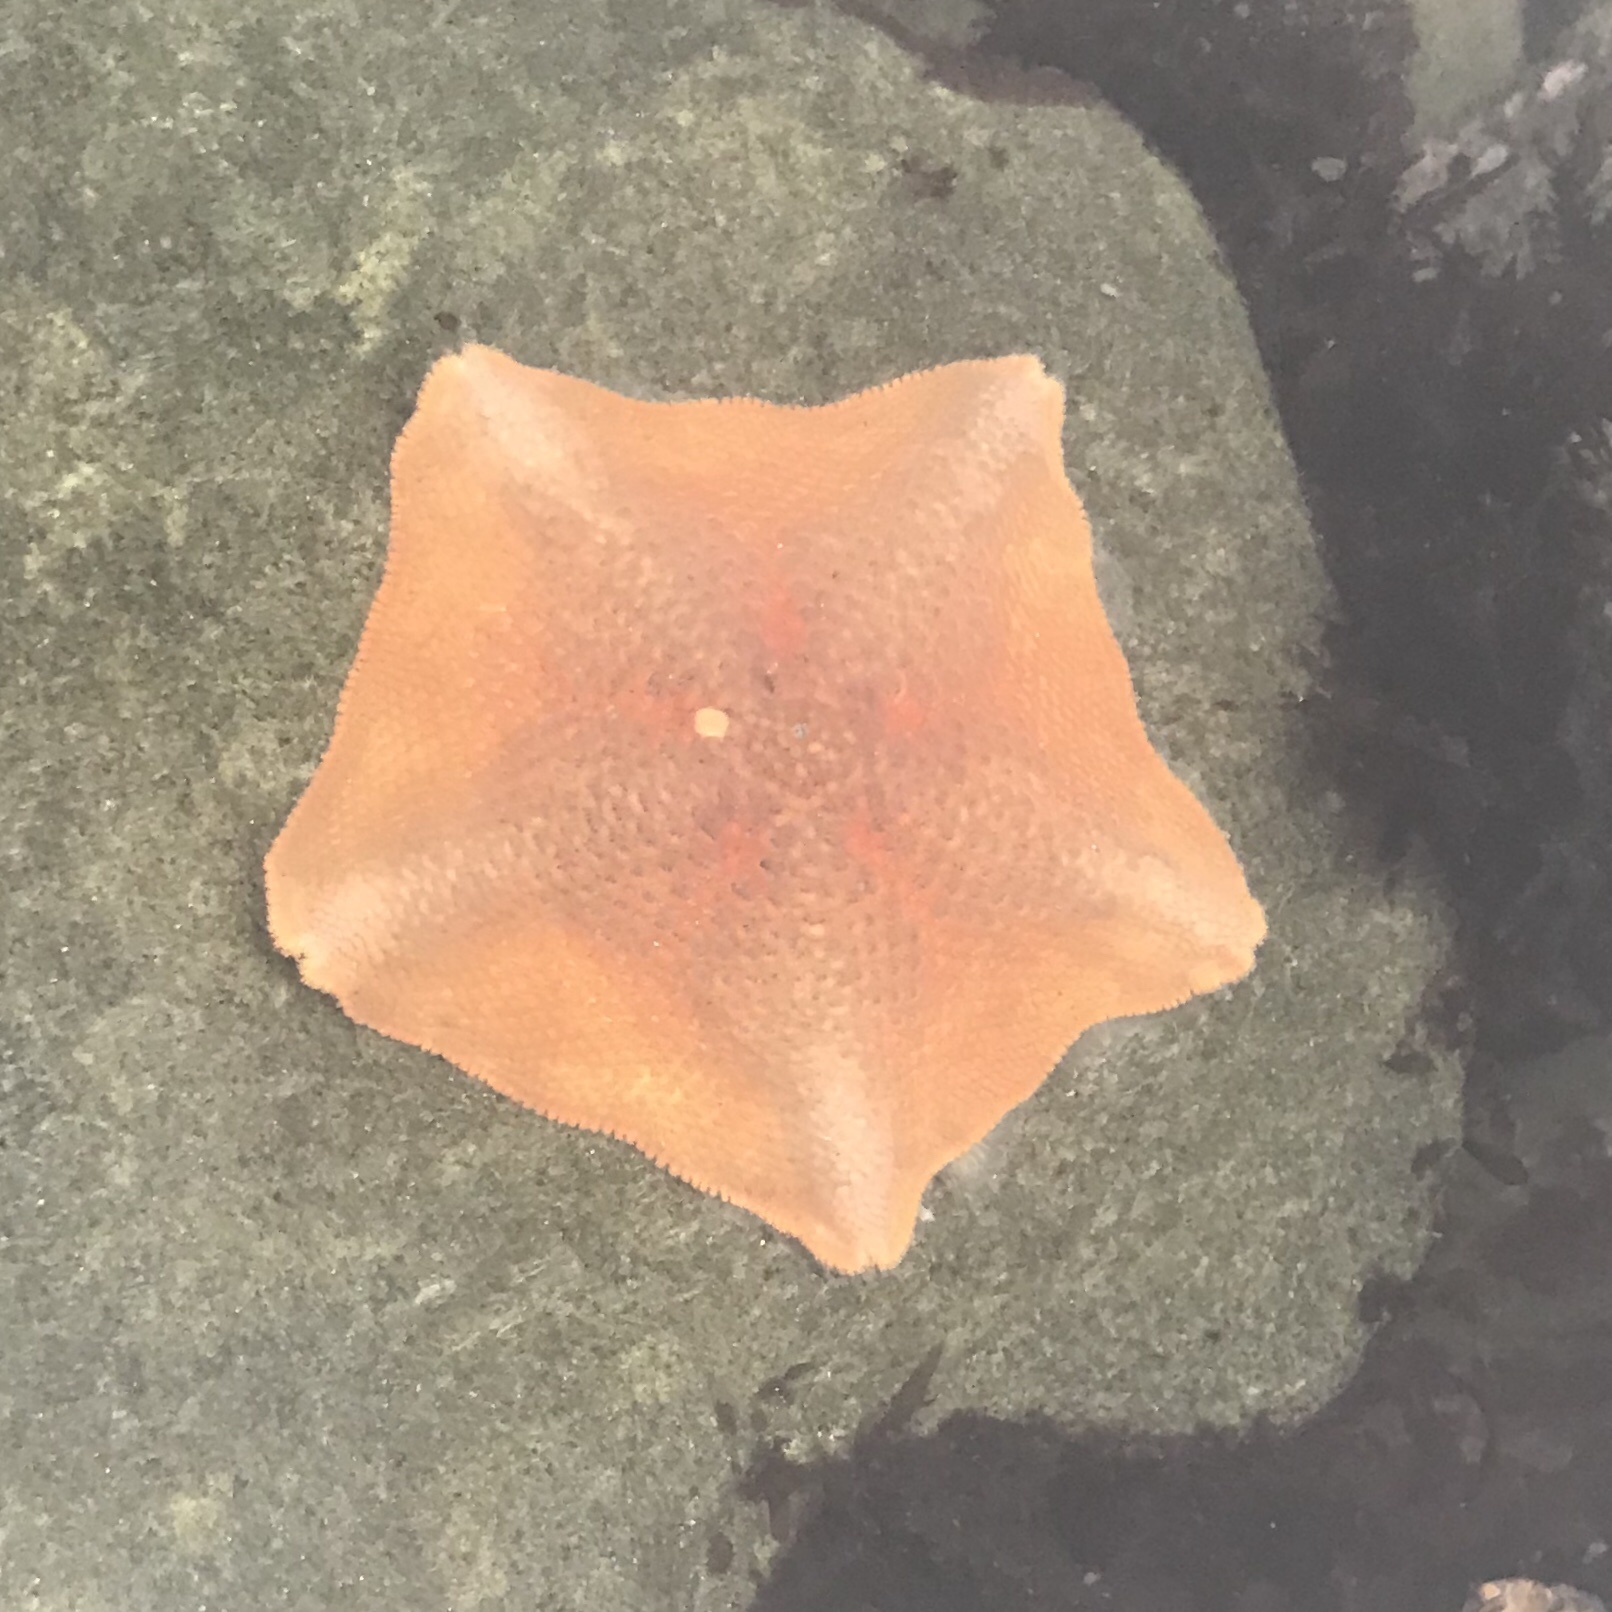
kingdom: Animalia
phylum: Echinodermata
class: Asteroidea
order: Valvatida
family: Asterinidae
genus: Patiria
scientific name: Patiria miniata
